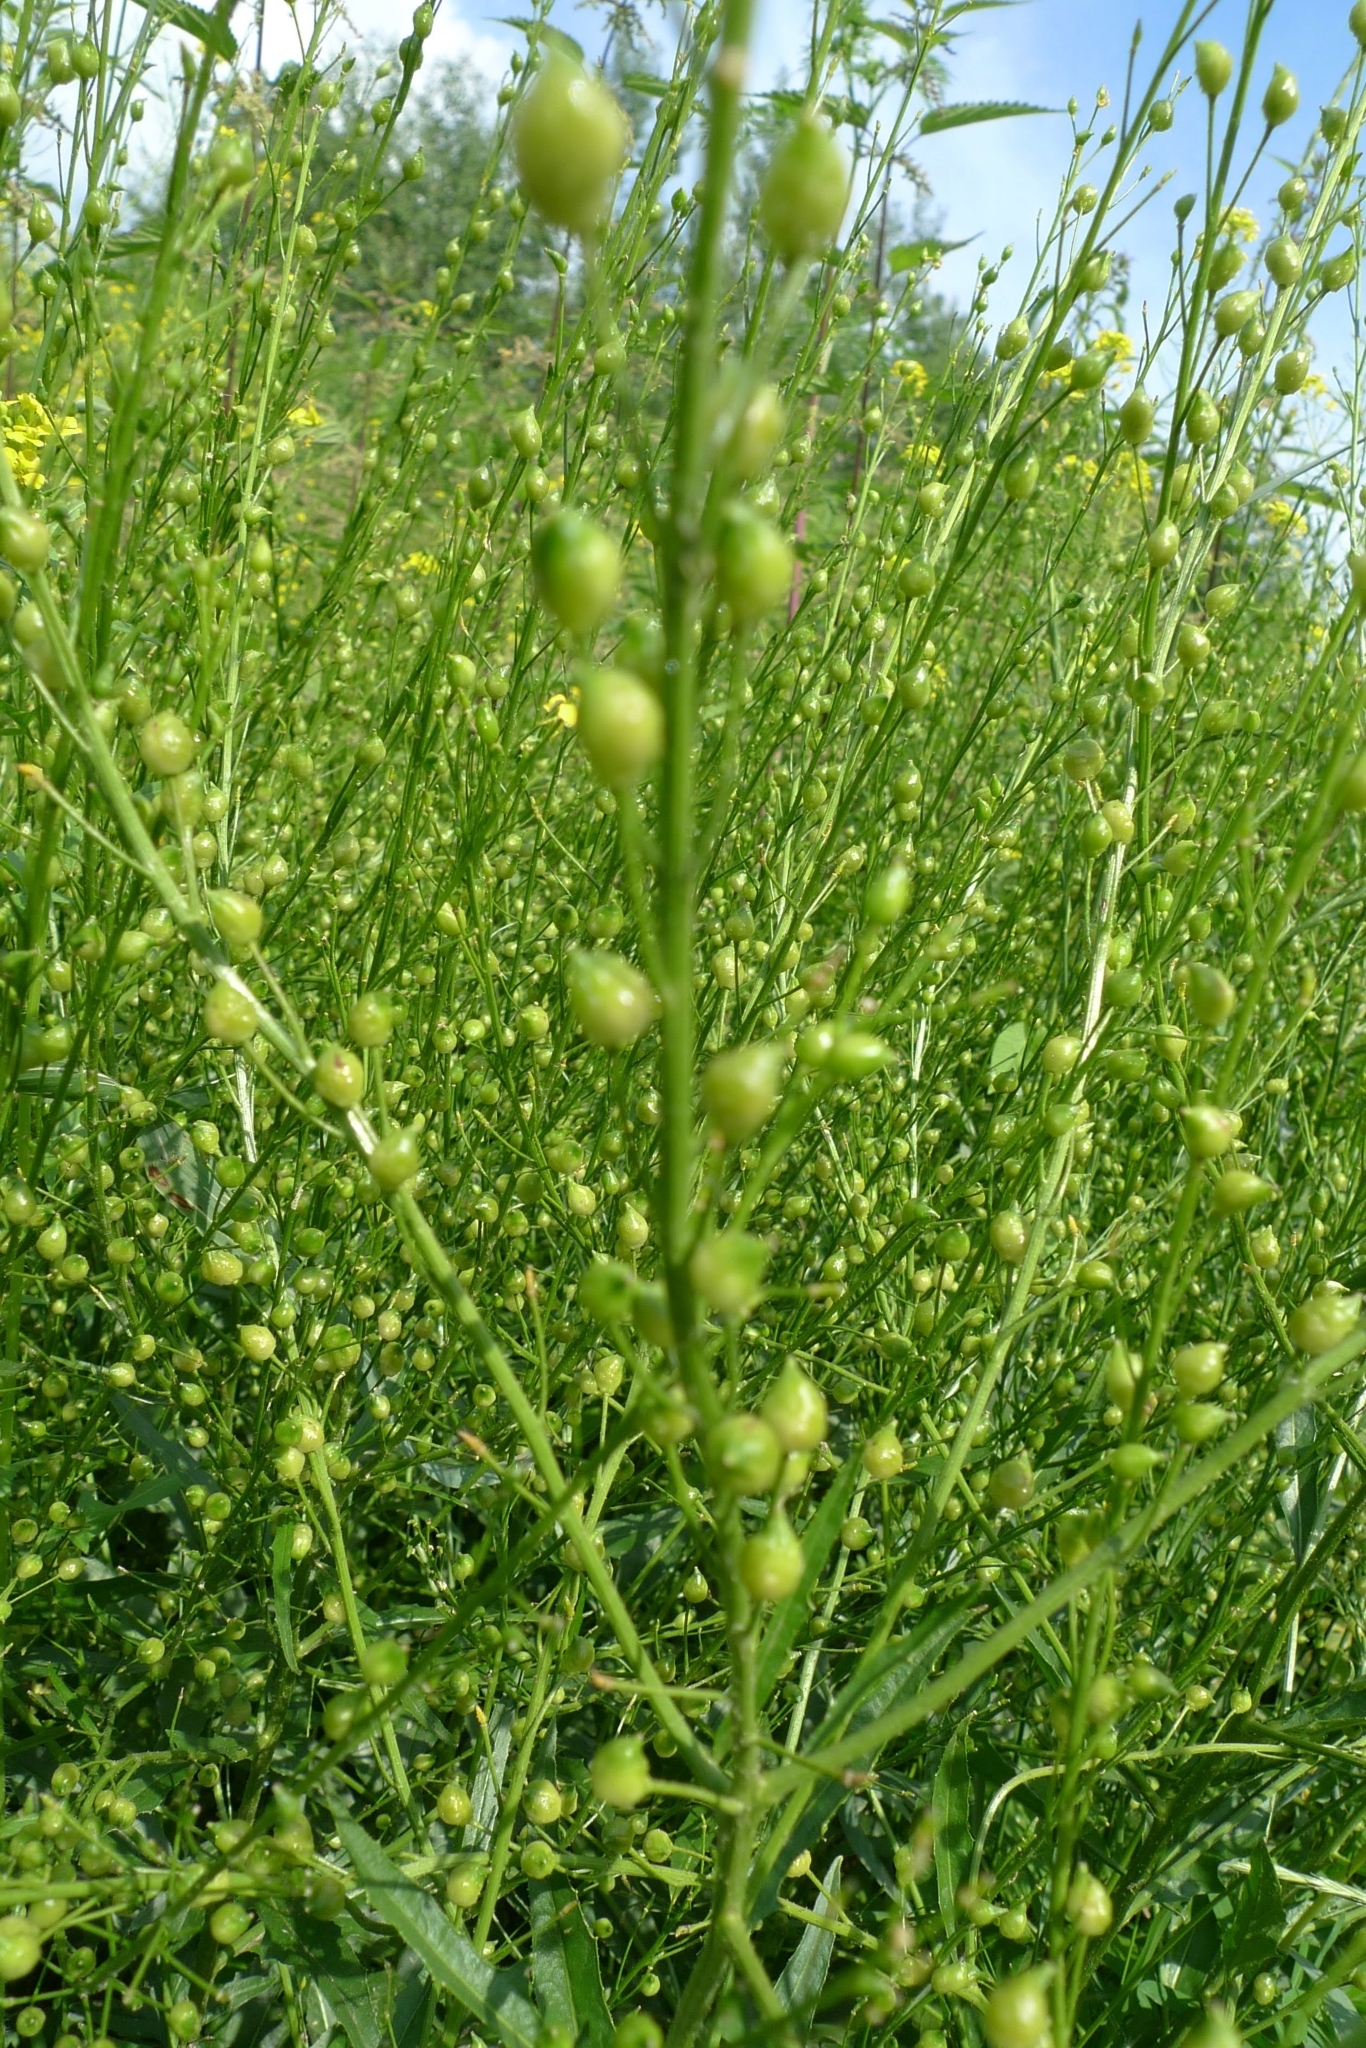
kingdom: Plantae
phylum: Tracheophyta
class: Magnoliopsida
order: Brassicales
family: Brassicaceae
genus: Bunias
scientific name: Bunias orientalis
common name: Warty-cabbage
